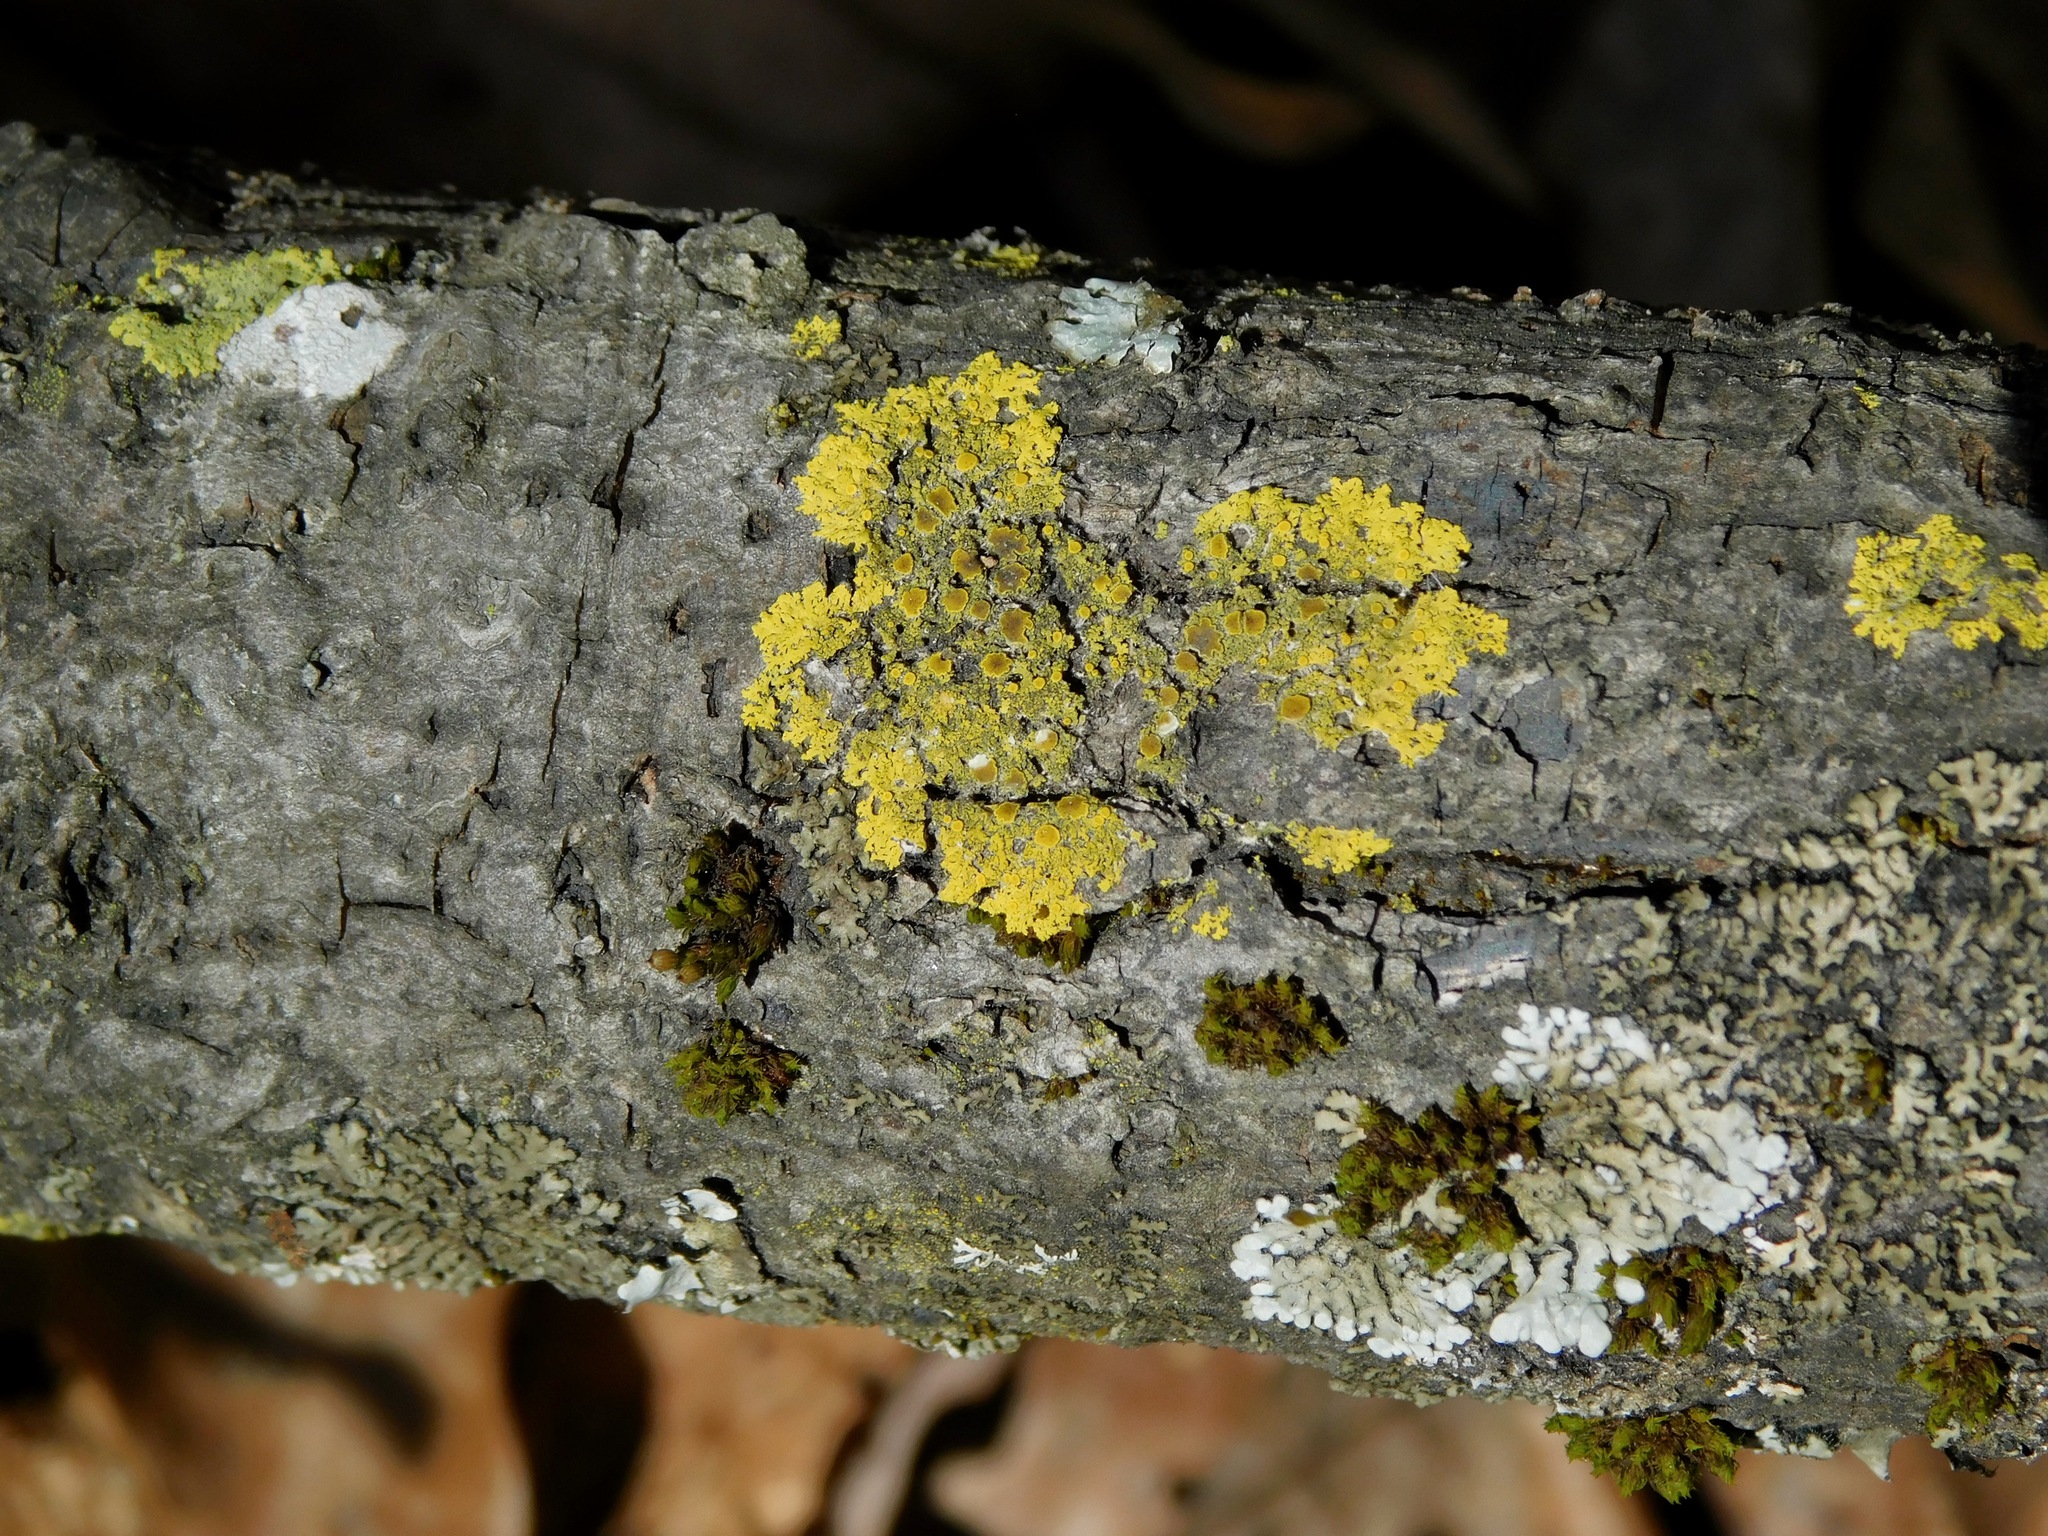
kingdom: Fungi
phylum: Ascomycota
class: Lecanoromycetes
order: Teloschistales
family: Teloschistaceae
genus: Gallowayella
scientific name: Gallowayella hasseana
